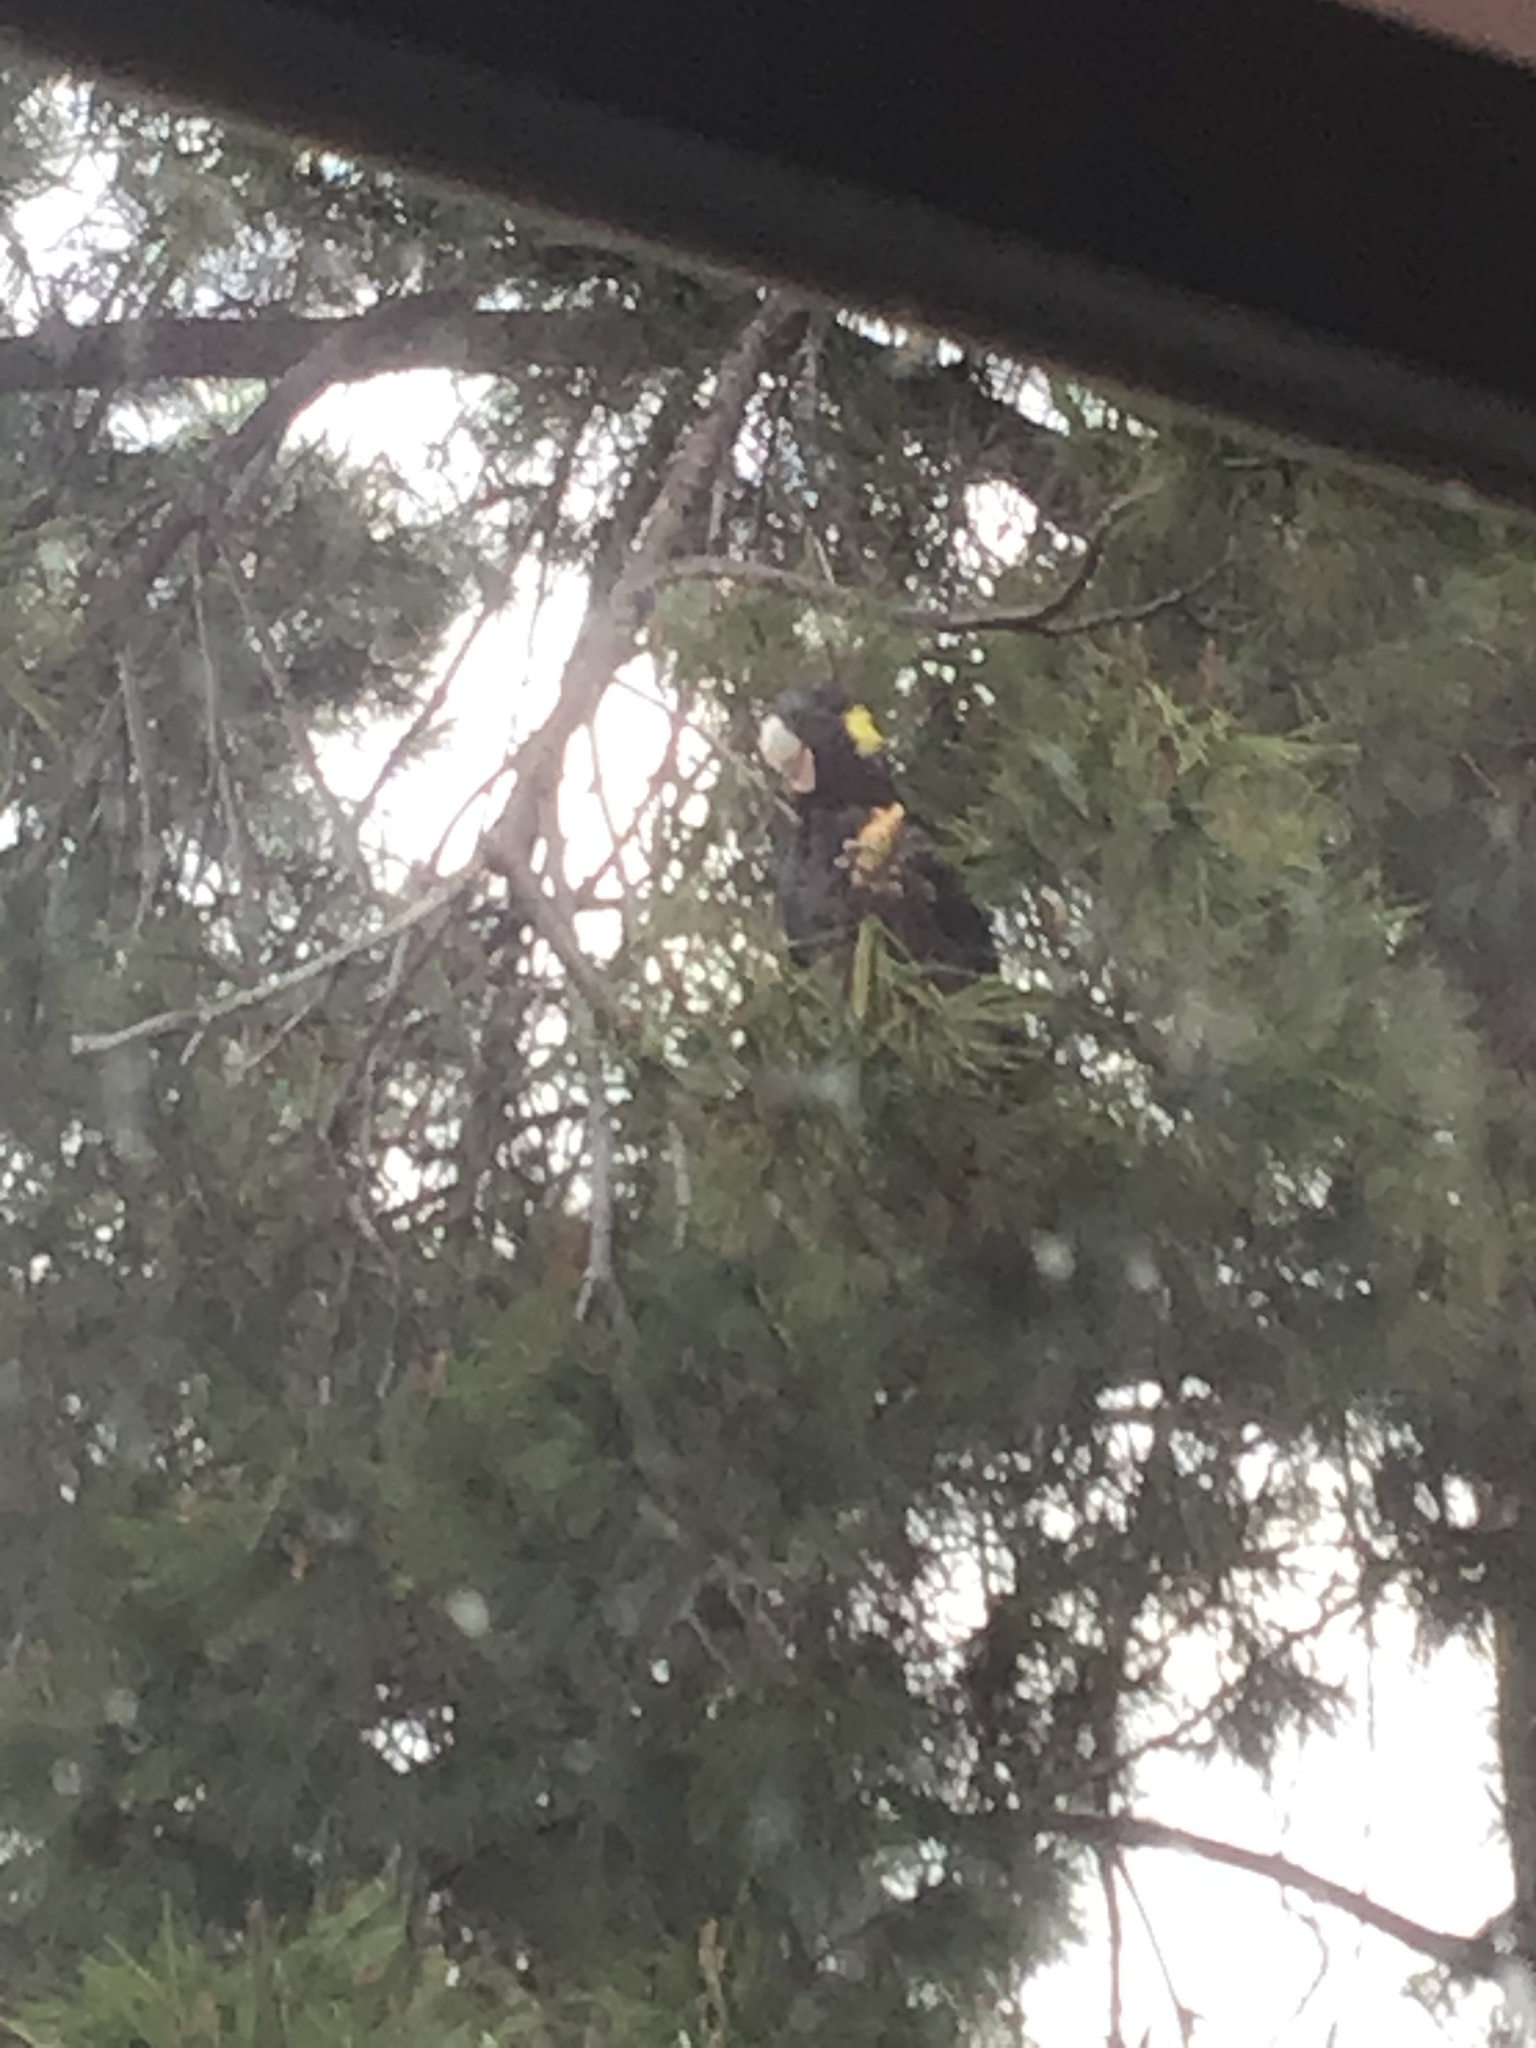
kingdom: Animalia
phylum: Chordata
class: Aves
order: Psittaciformes
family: Cacatuidae
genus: Zanda
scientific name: Zanda funerea
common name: Yellow-tailed black-cockatoo
